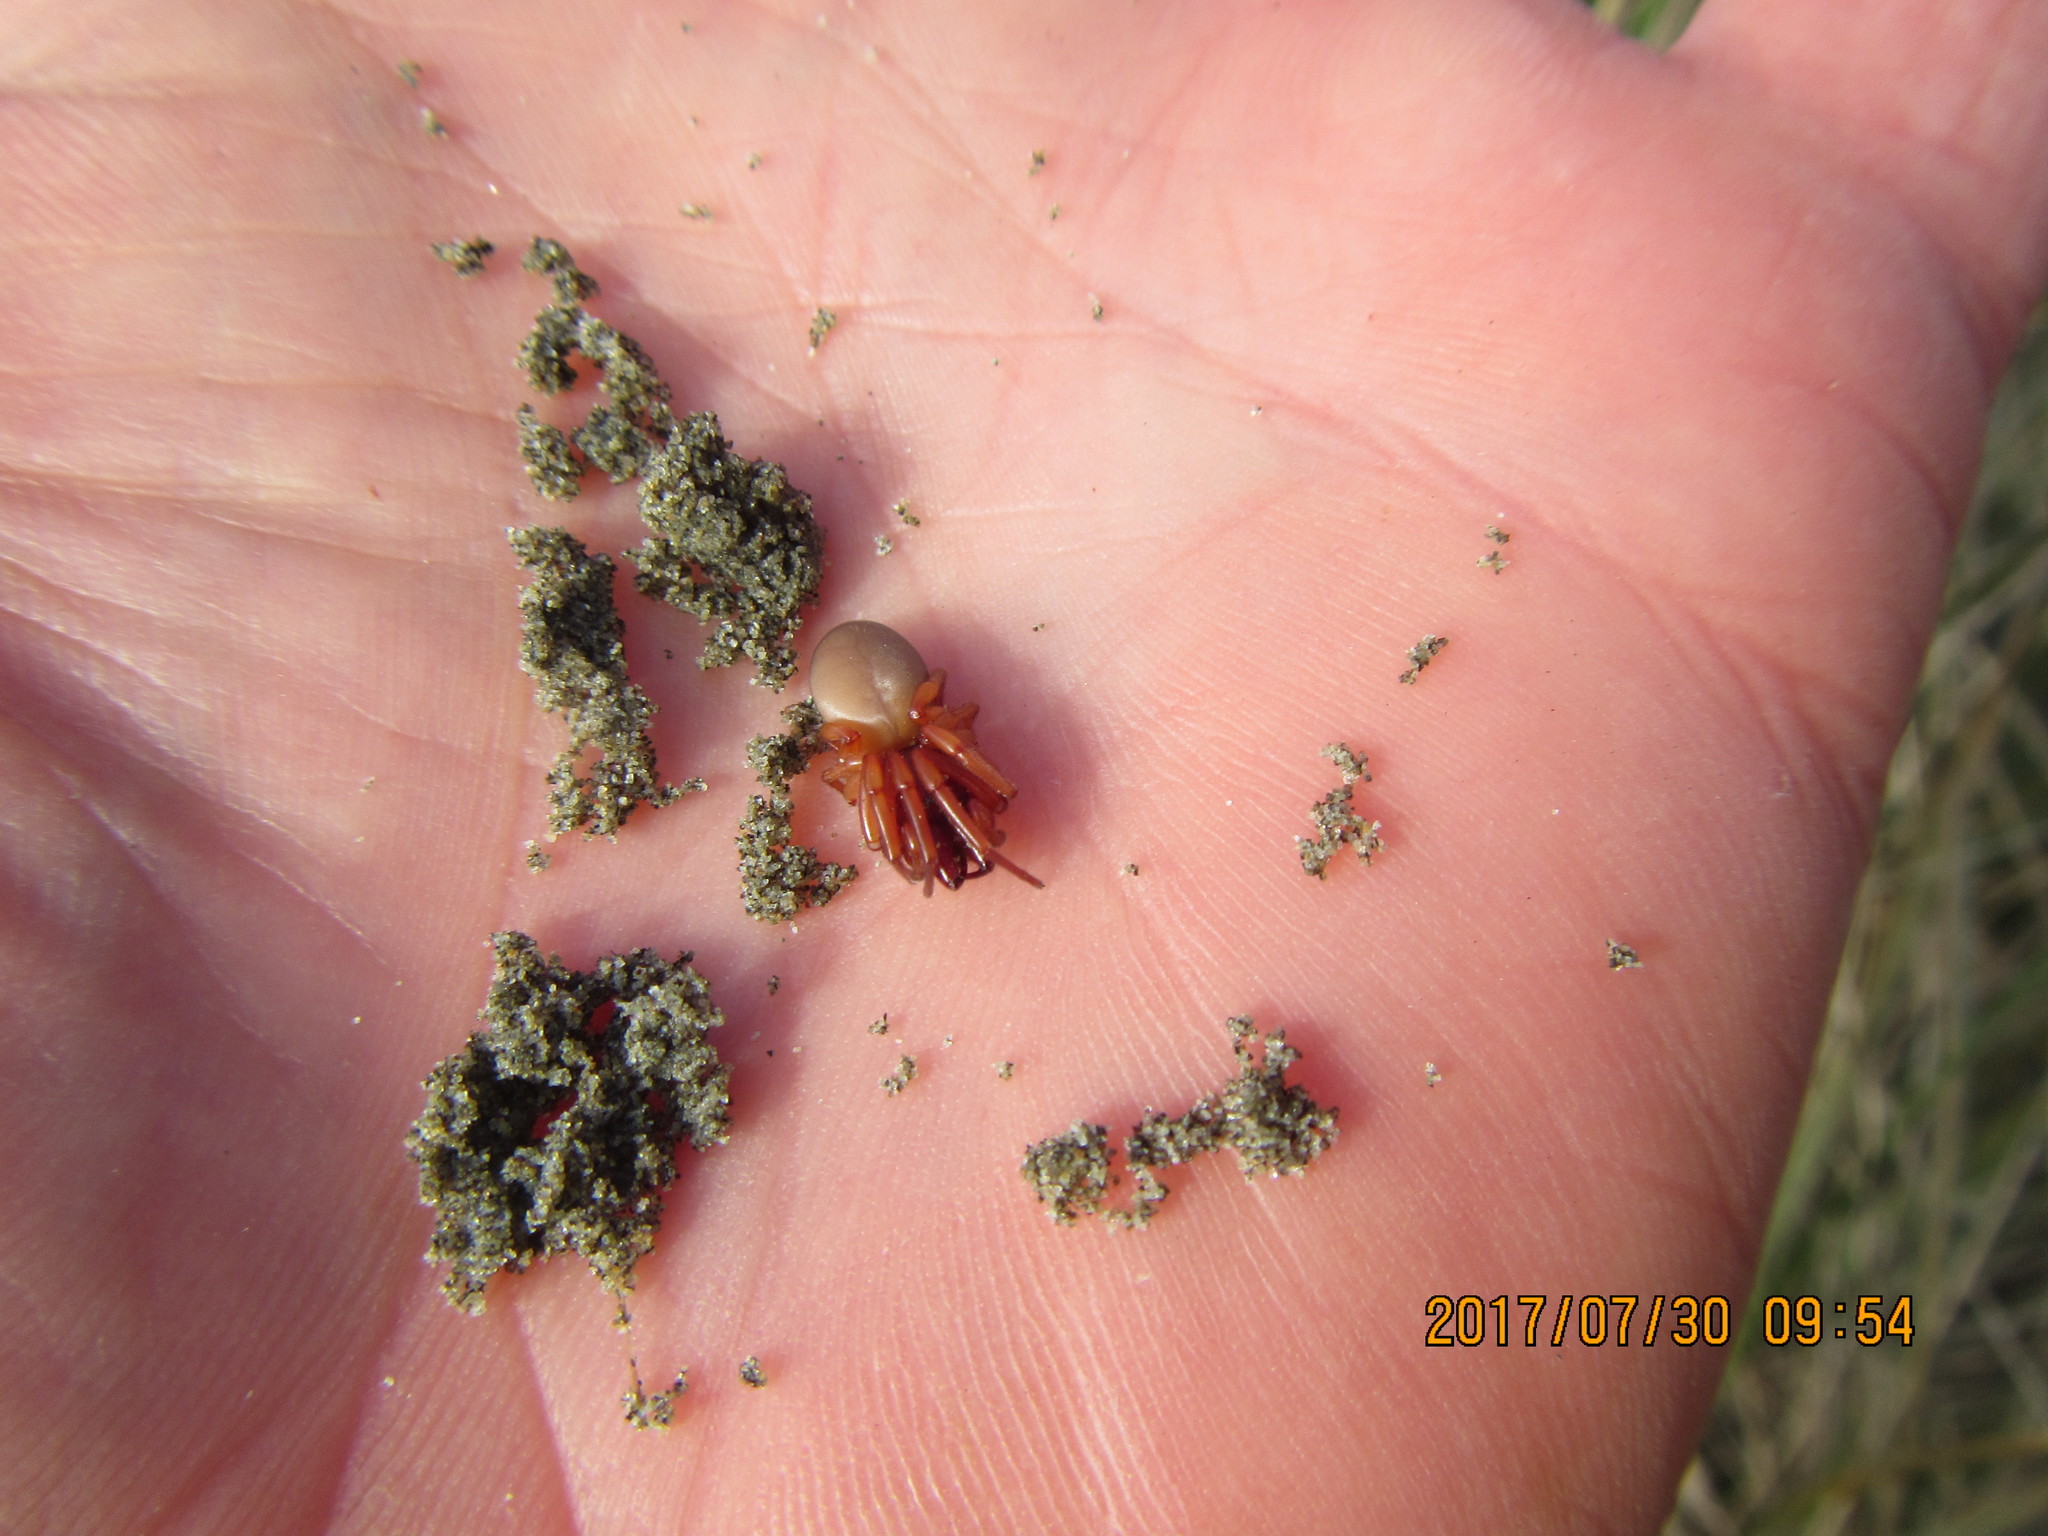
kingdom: Animalia
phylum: Arthropoda
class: Arachnida
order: Araneae
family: Dysderidae
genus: Dysdera
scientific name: Dysdera crocata
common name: Woodlouse spider
